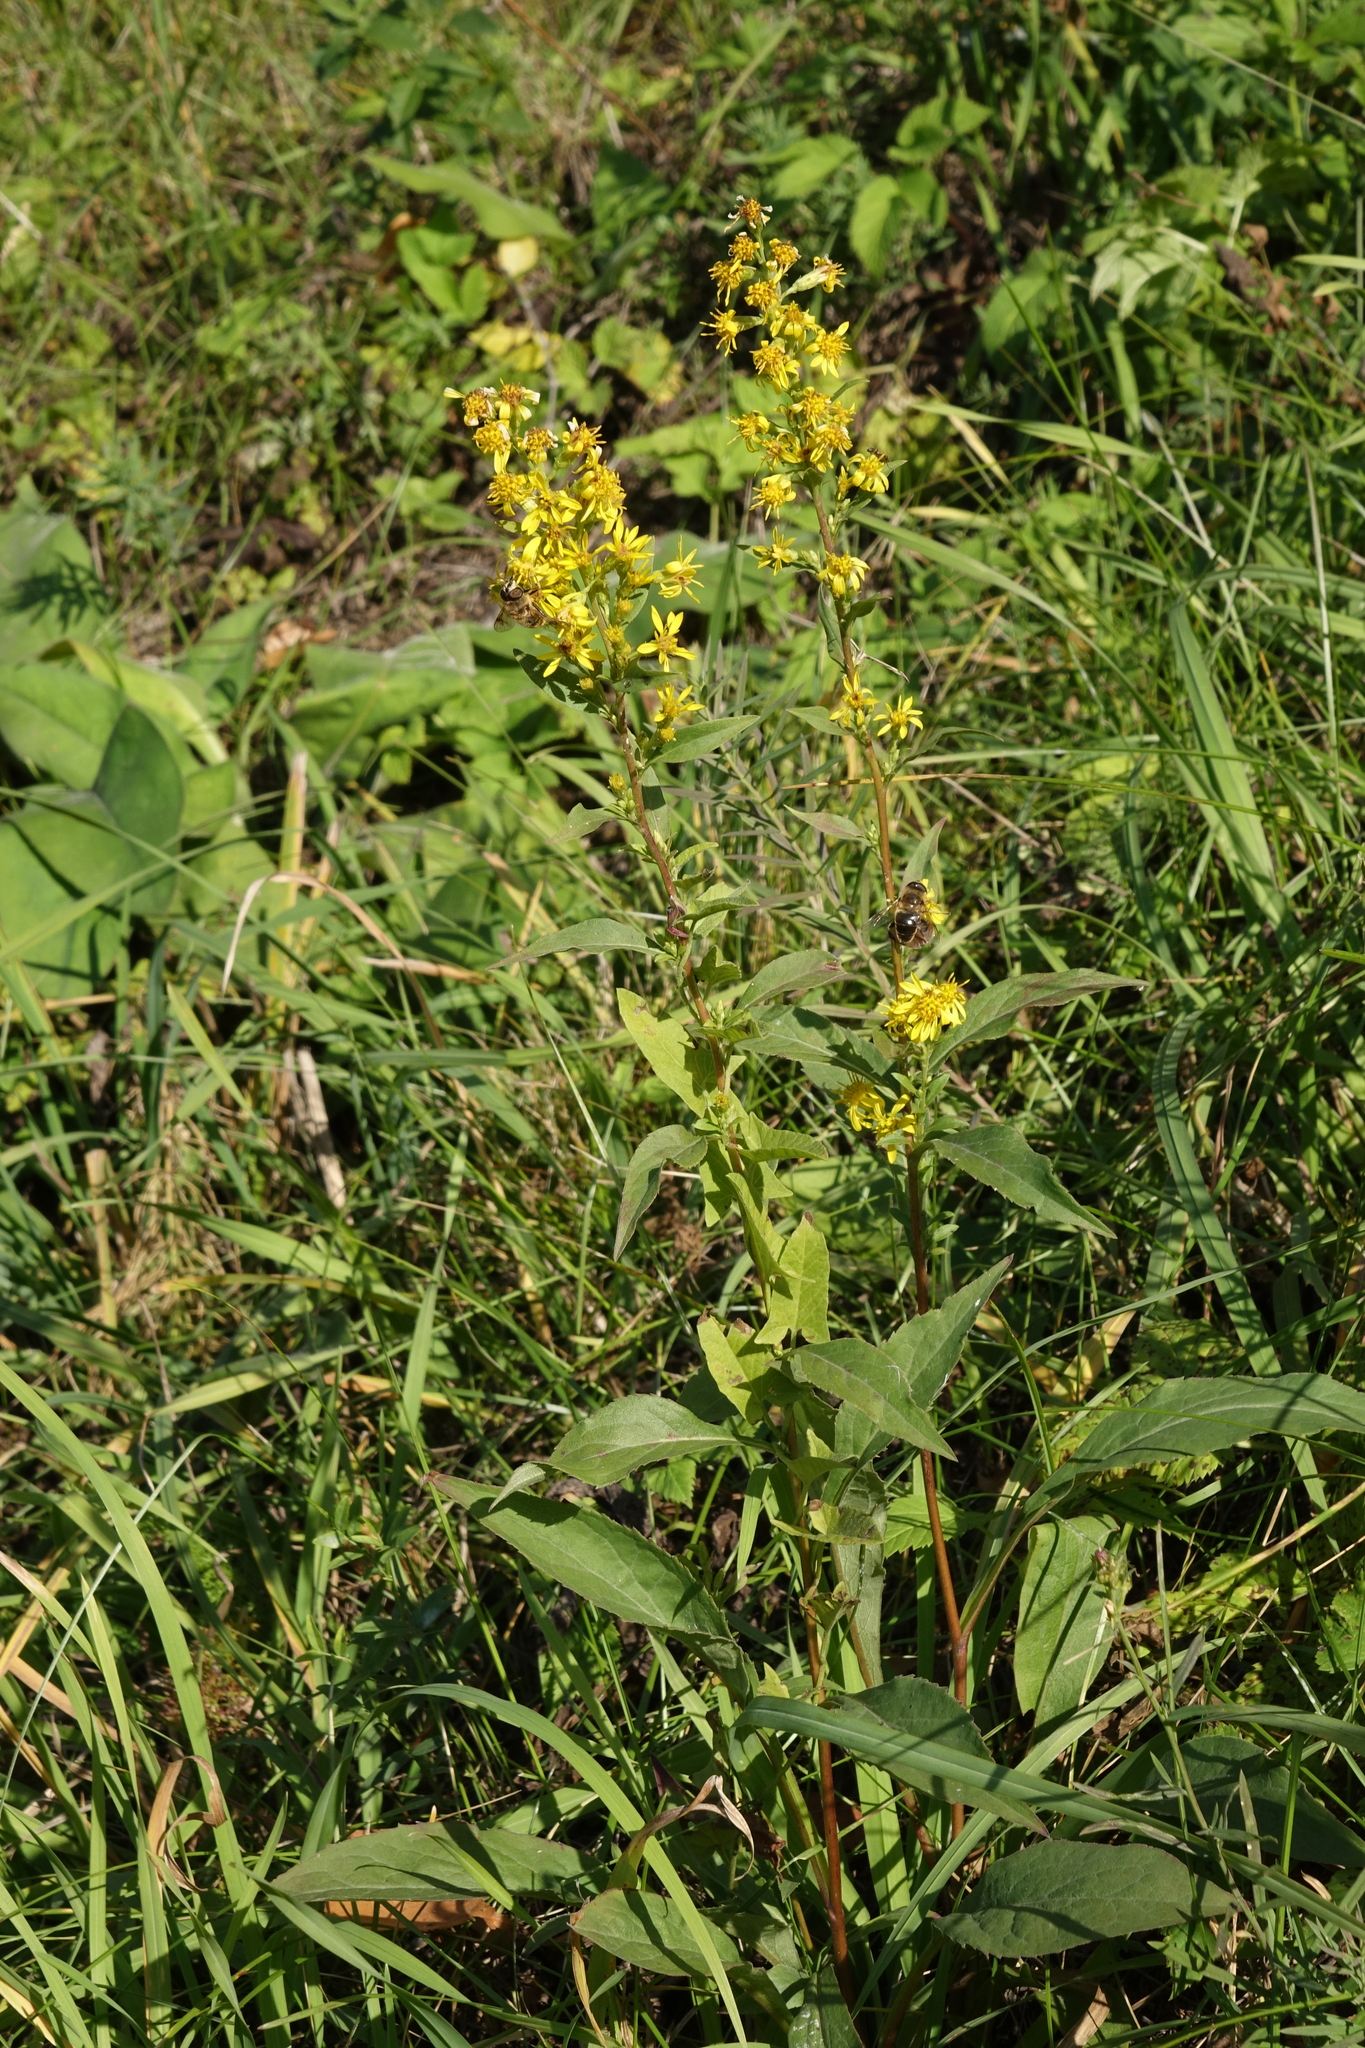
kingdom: Plantae
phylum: Tracheophyta
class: Magnoliopsida
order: Asterales
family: Asteraceae
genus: Solidago
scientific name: Solidago virgaurea
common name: Goldenrod
